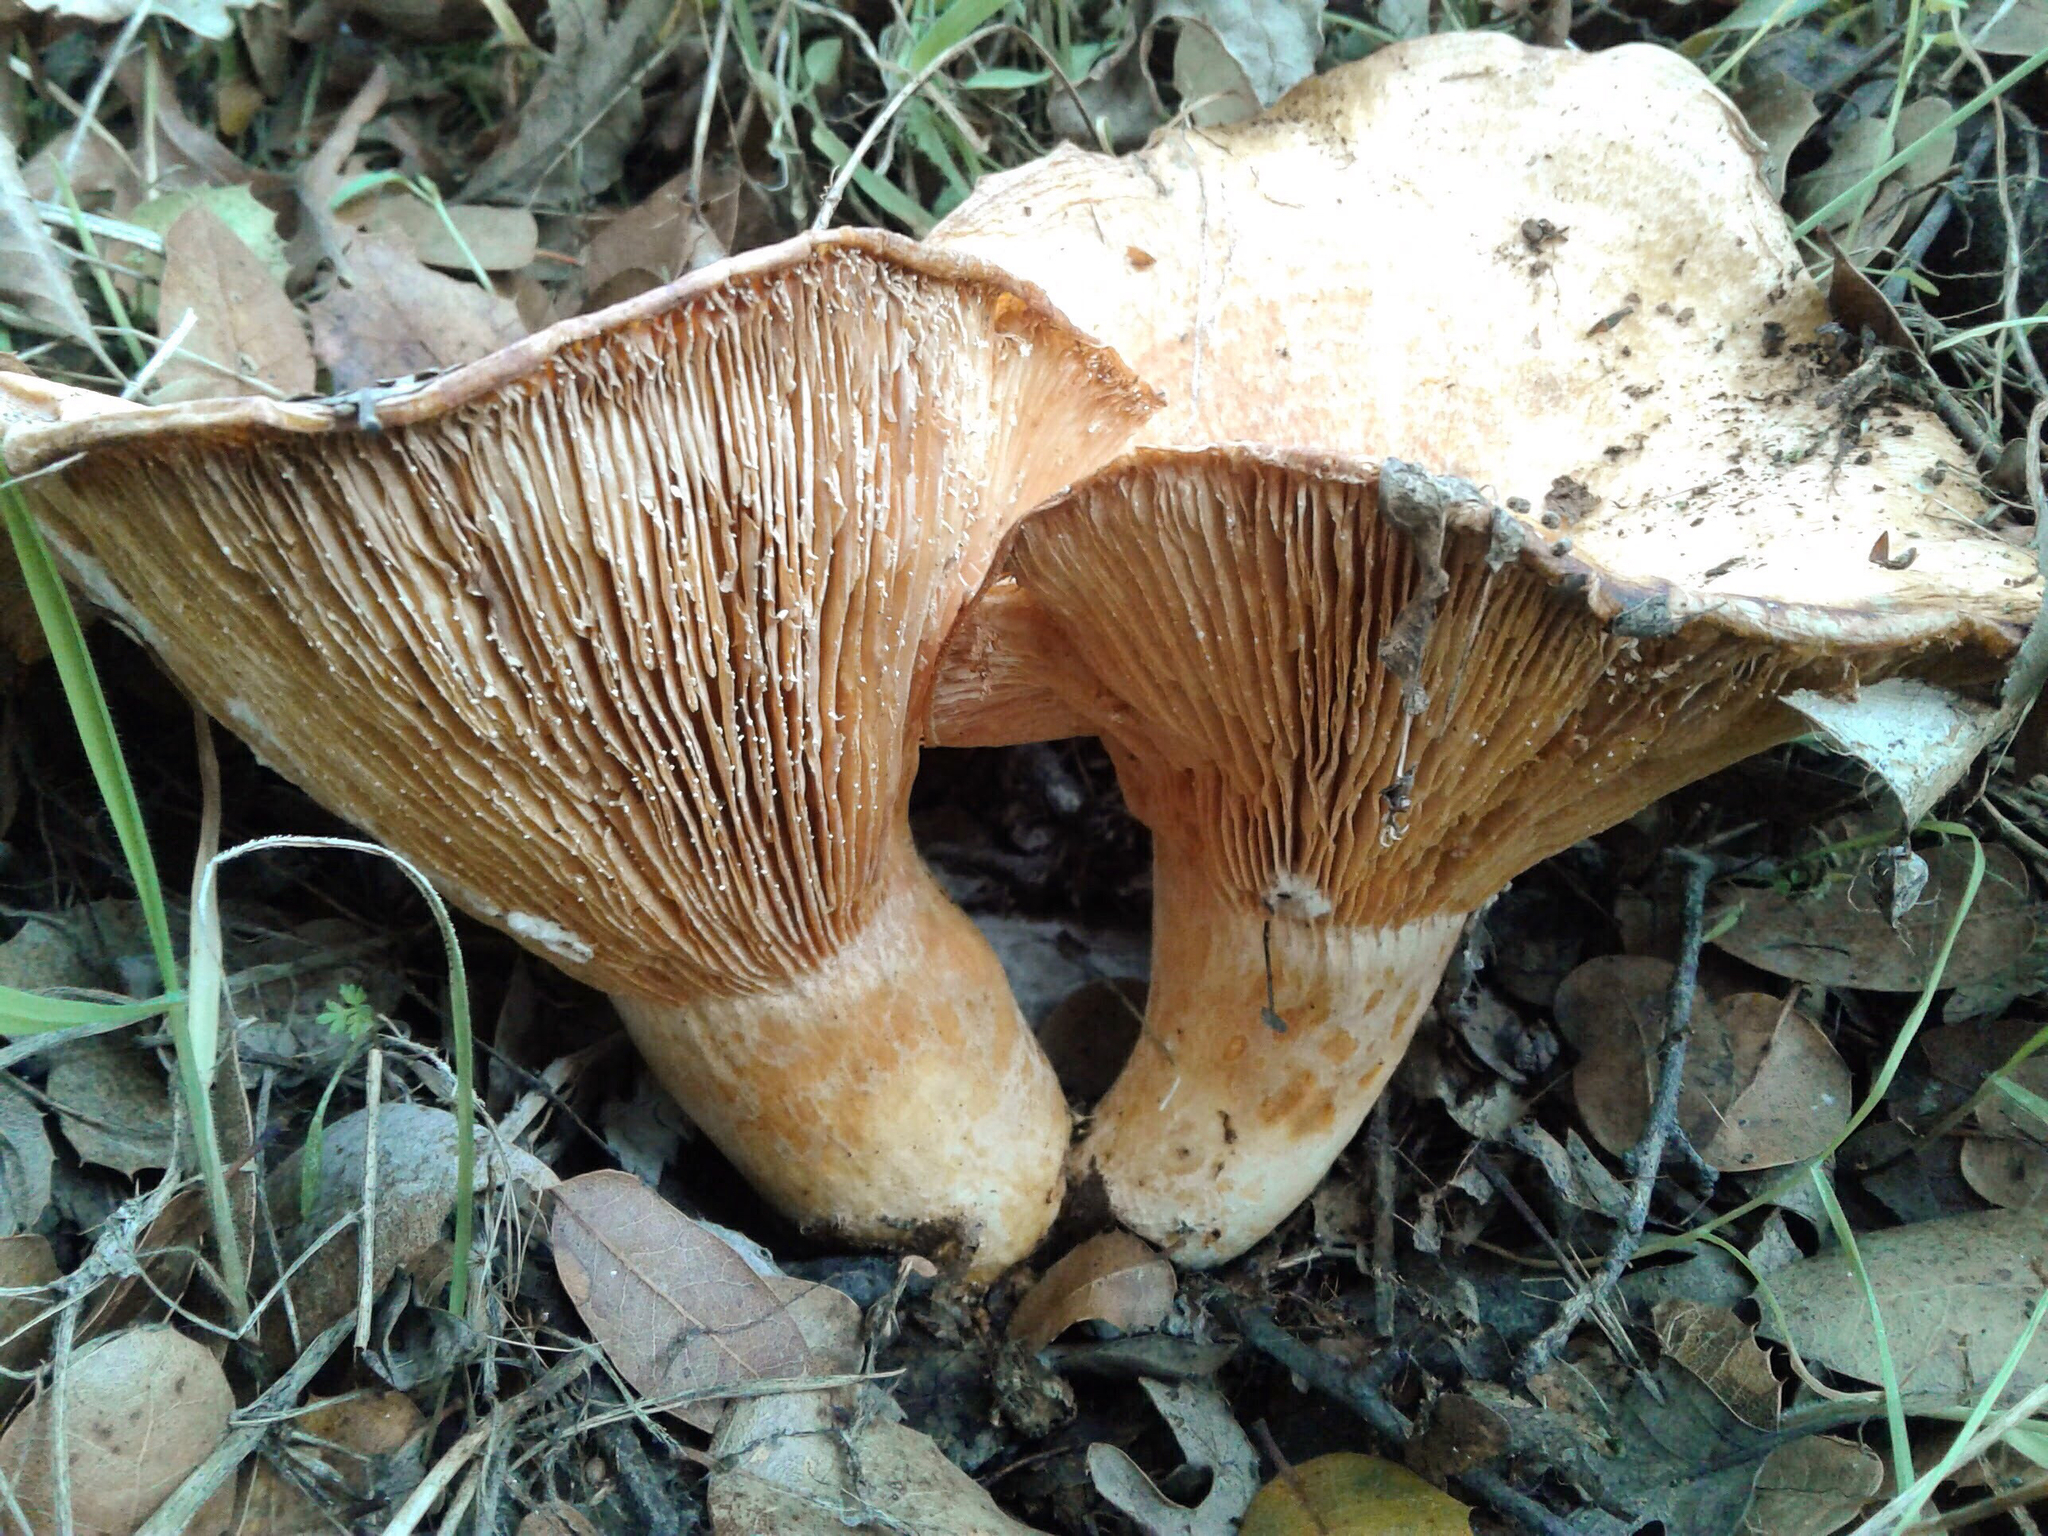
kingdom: Fungi
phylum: Basidiomycota
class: Agaricomycetes
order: Russulales
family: Russulaceae
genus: Lactarius
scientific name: Lactarius alnicola
